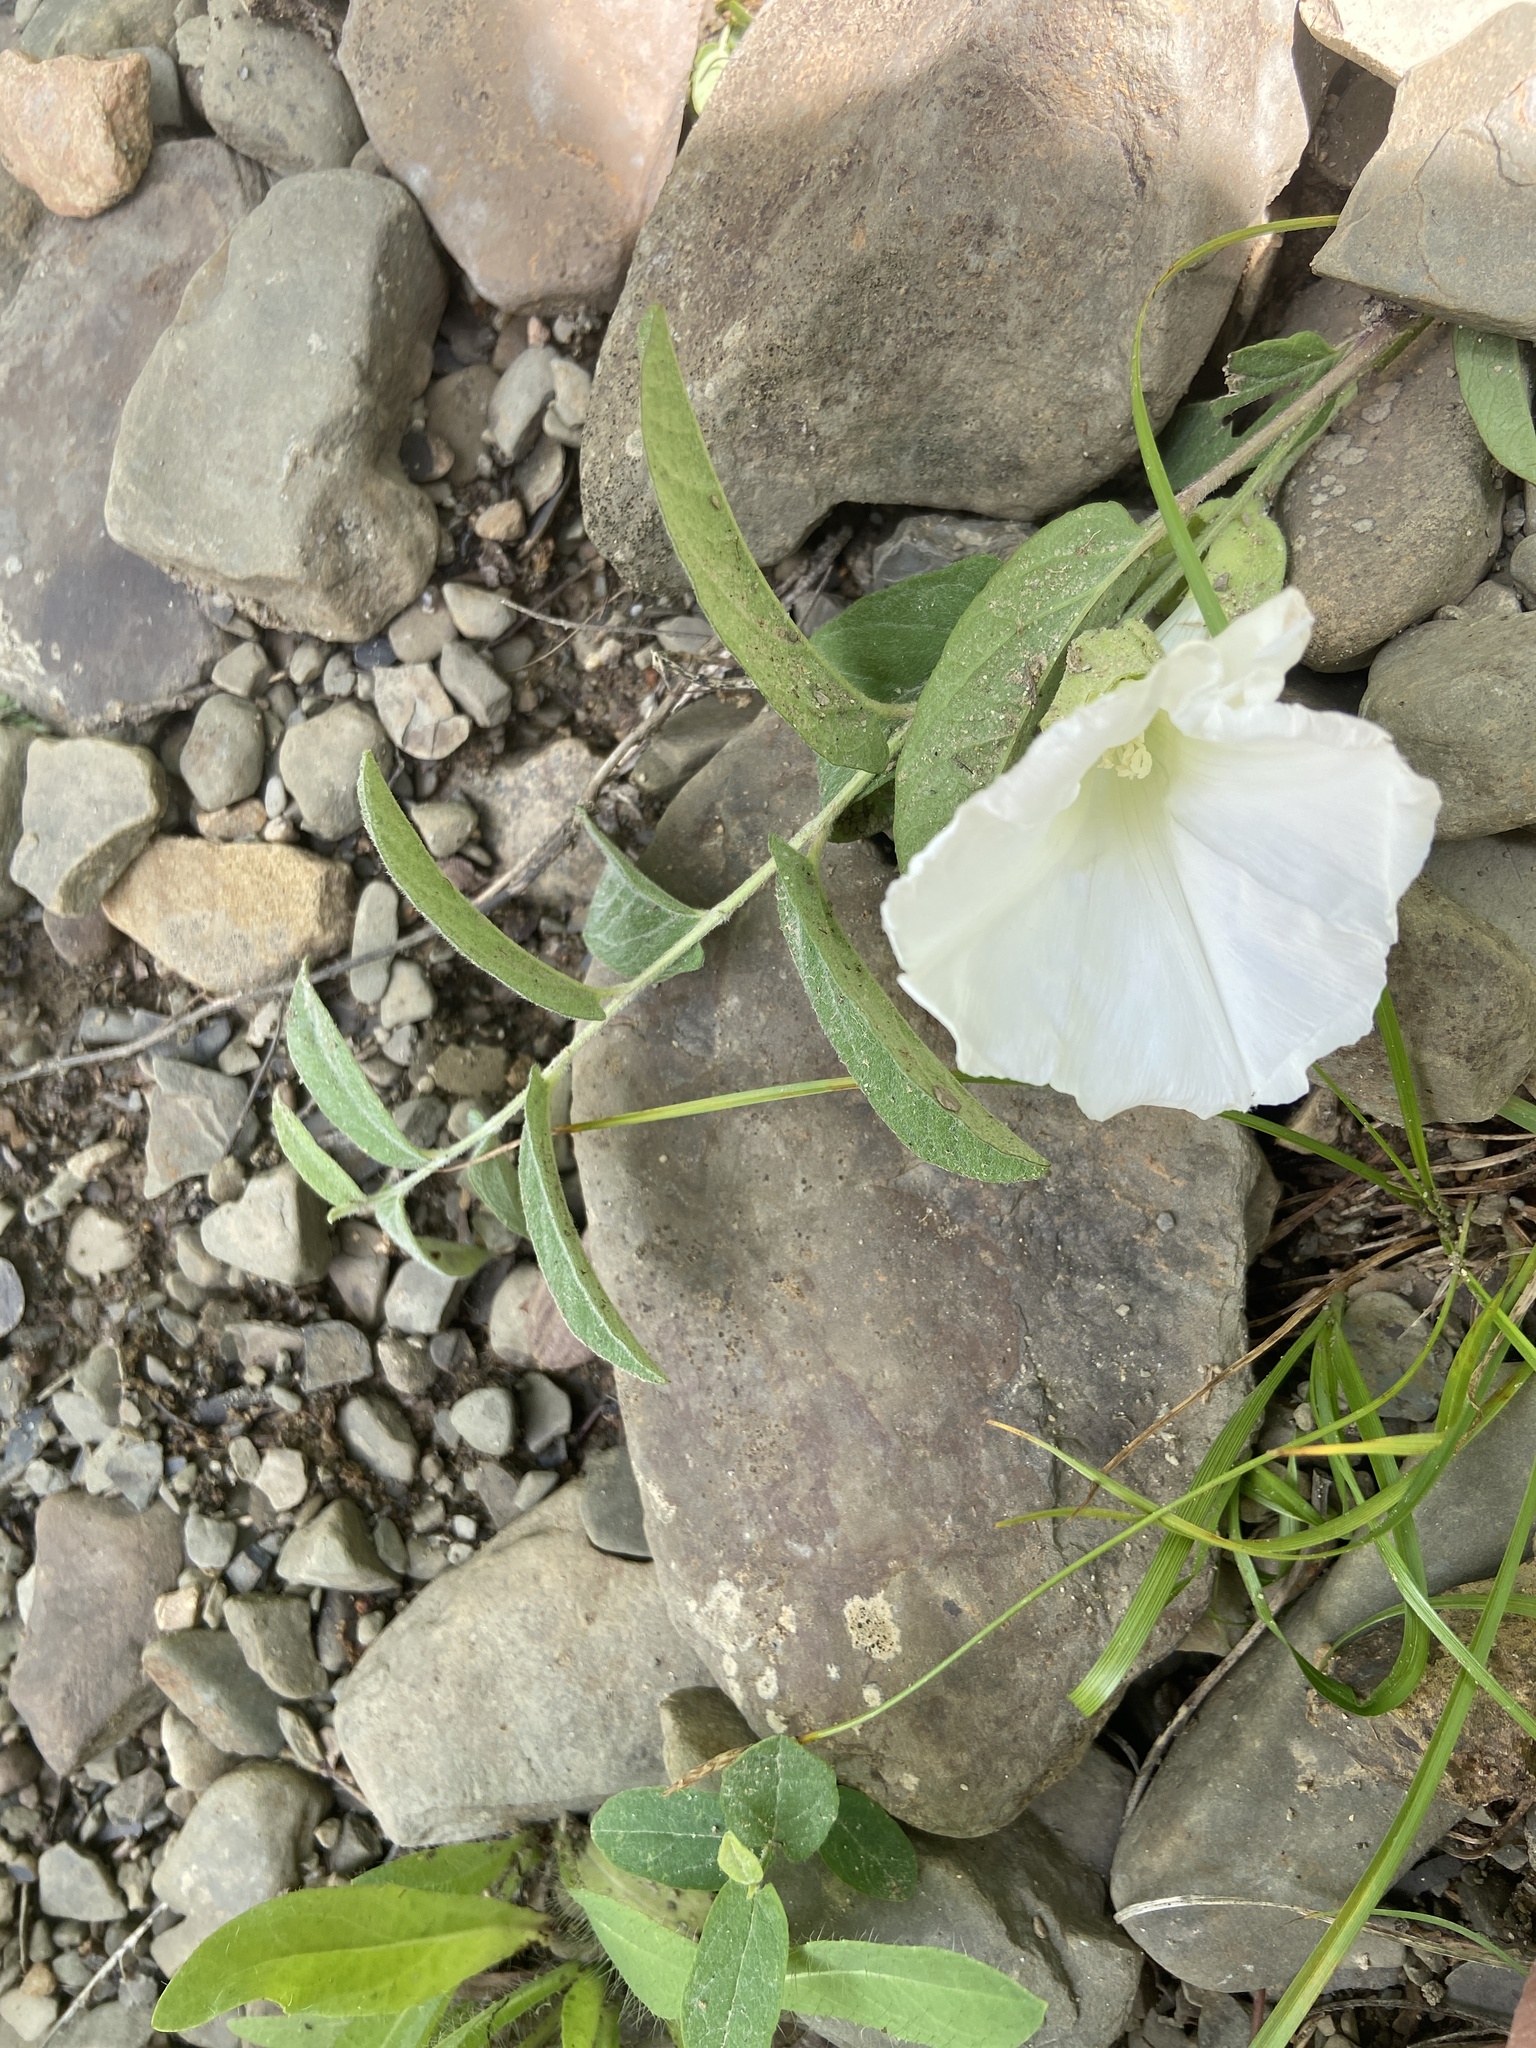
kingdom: Plantae
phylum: Tracheophyta
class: Magnoliopsida
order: Solanales
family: Convolvulaceae
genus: Calystegia
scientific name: Calystegia spithamaea
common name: Dwarf bindweed
